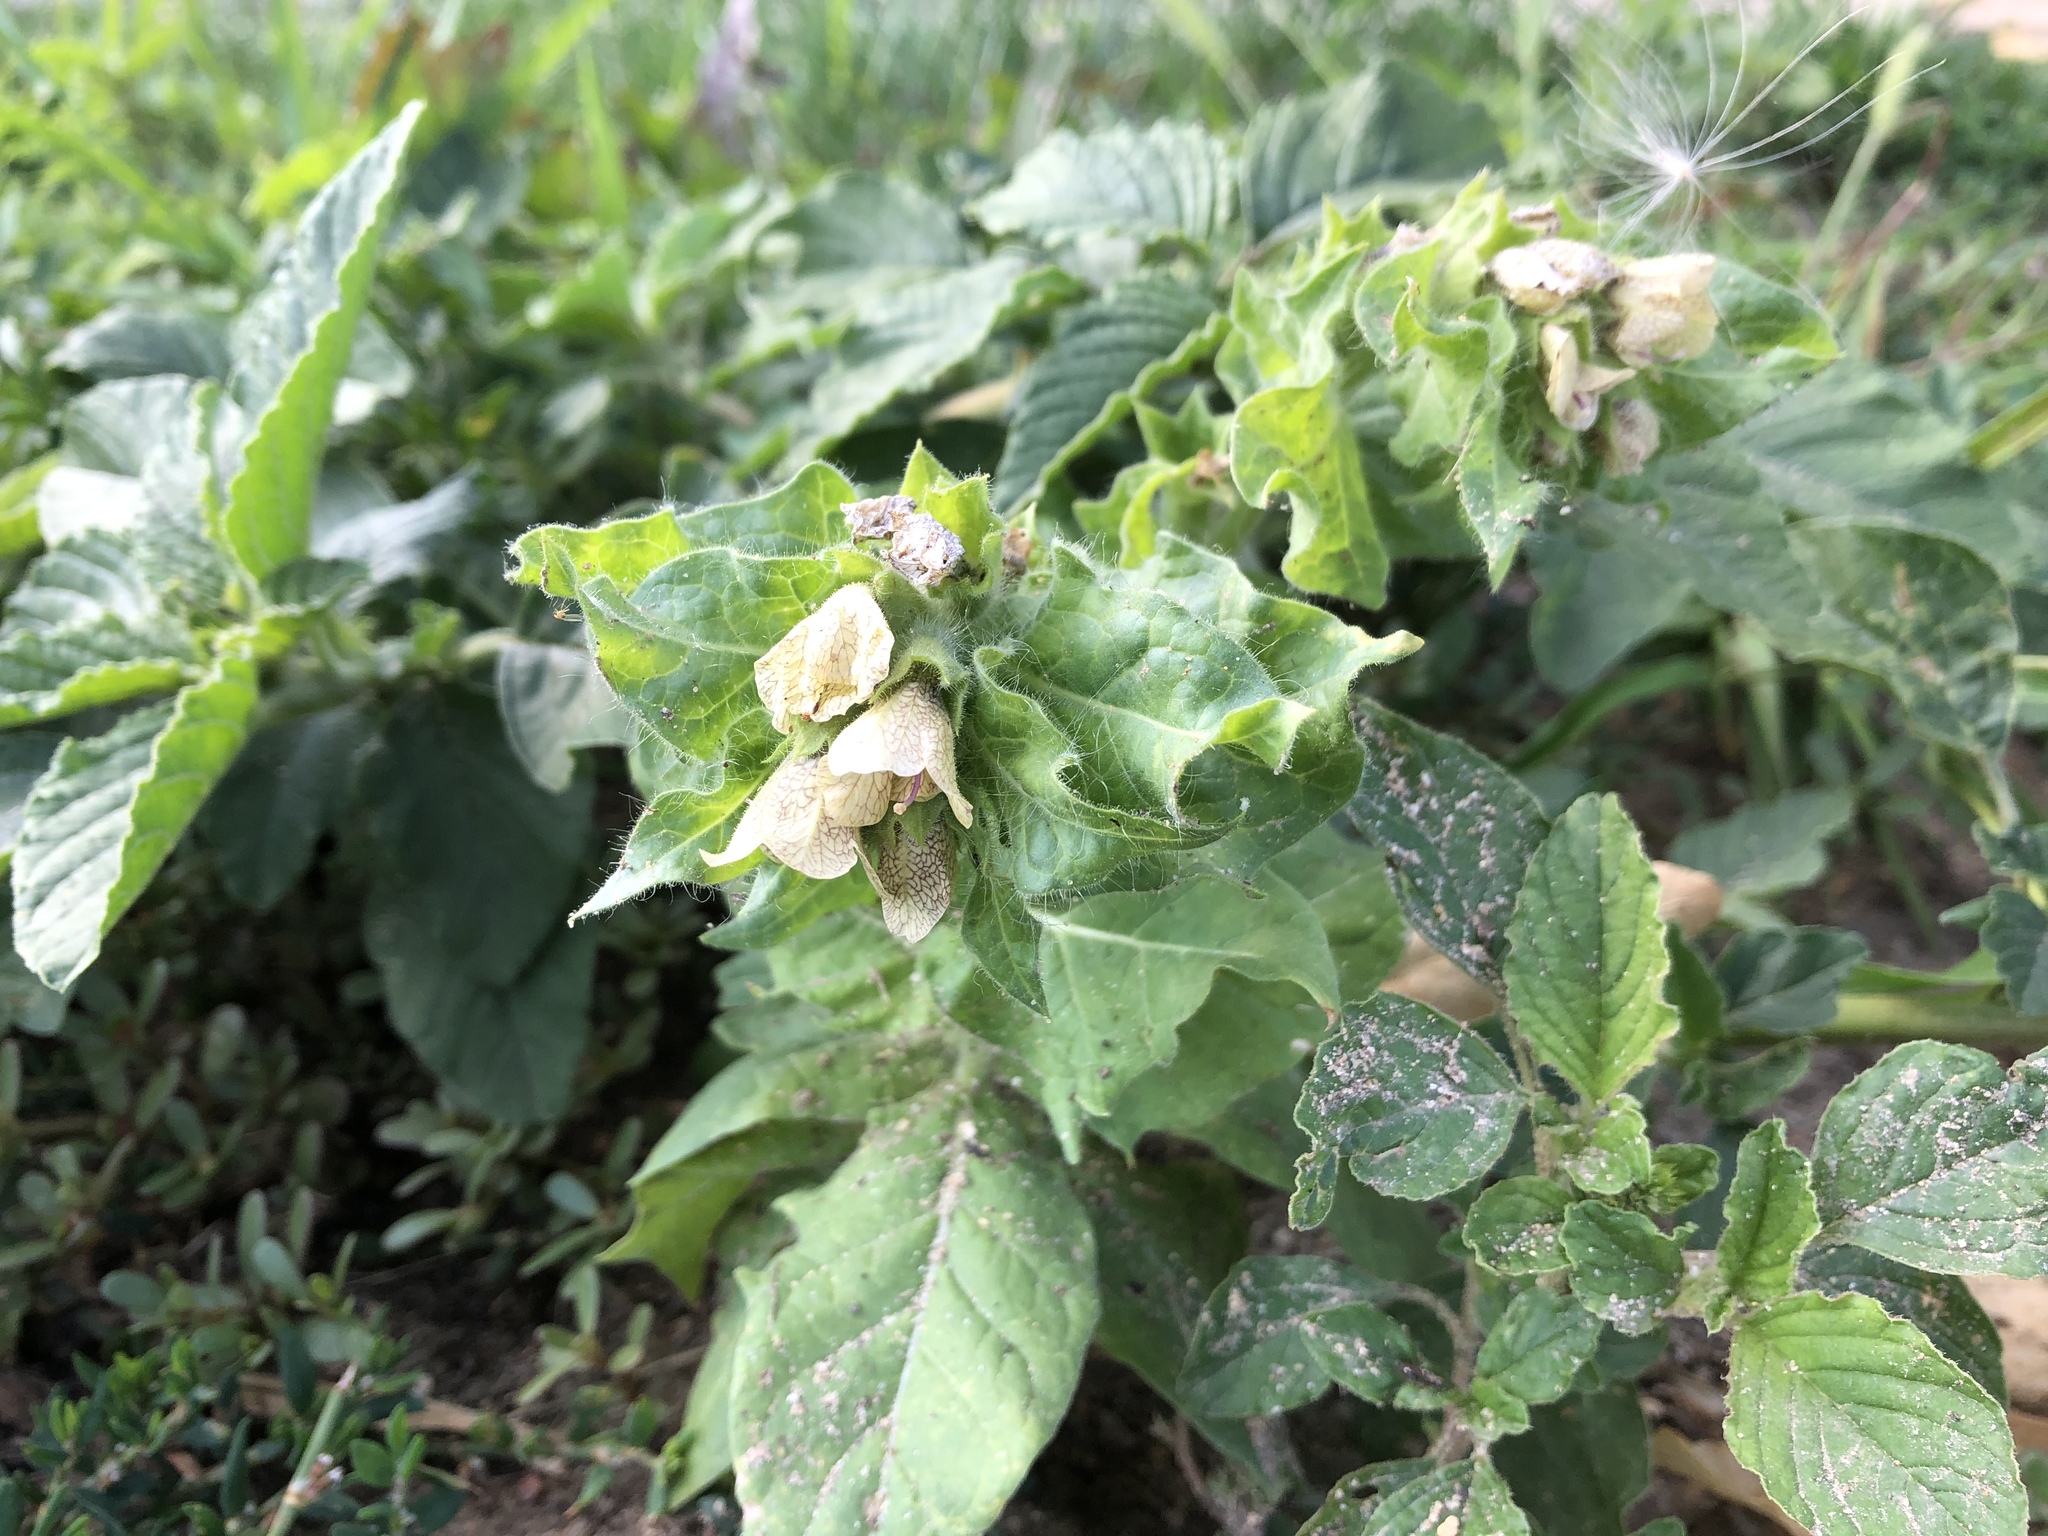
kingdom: Plantae
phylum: Tracheophyta
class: Magnoliopsida
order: Solanales
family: Solanaceae
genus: Hyoscyamus
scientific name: Hyoscyamus niger
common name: Henbane
